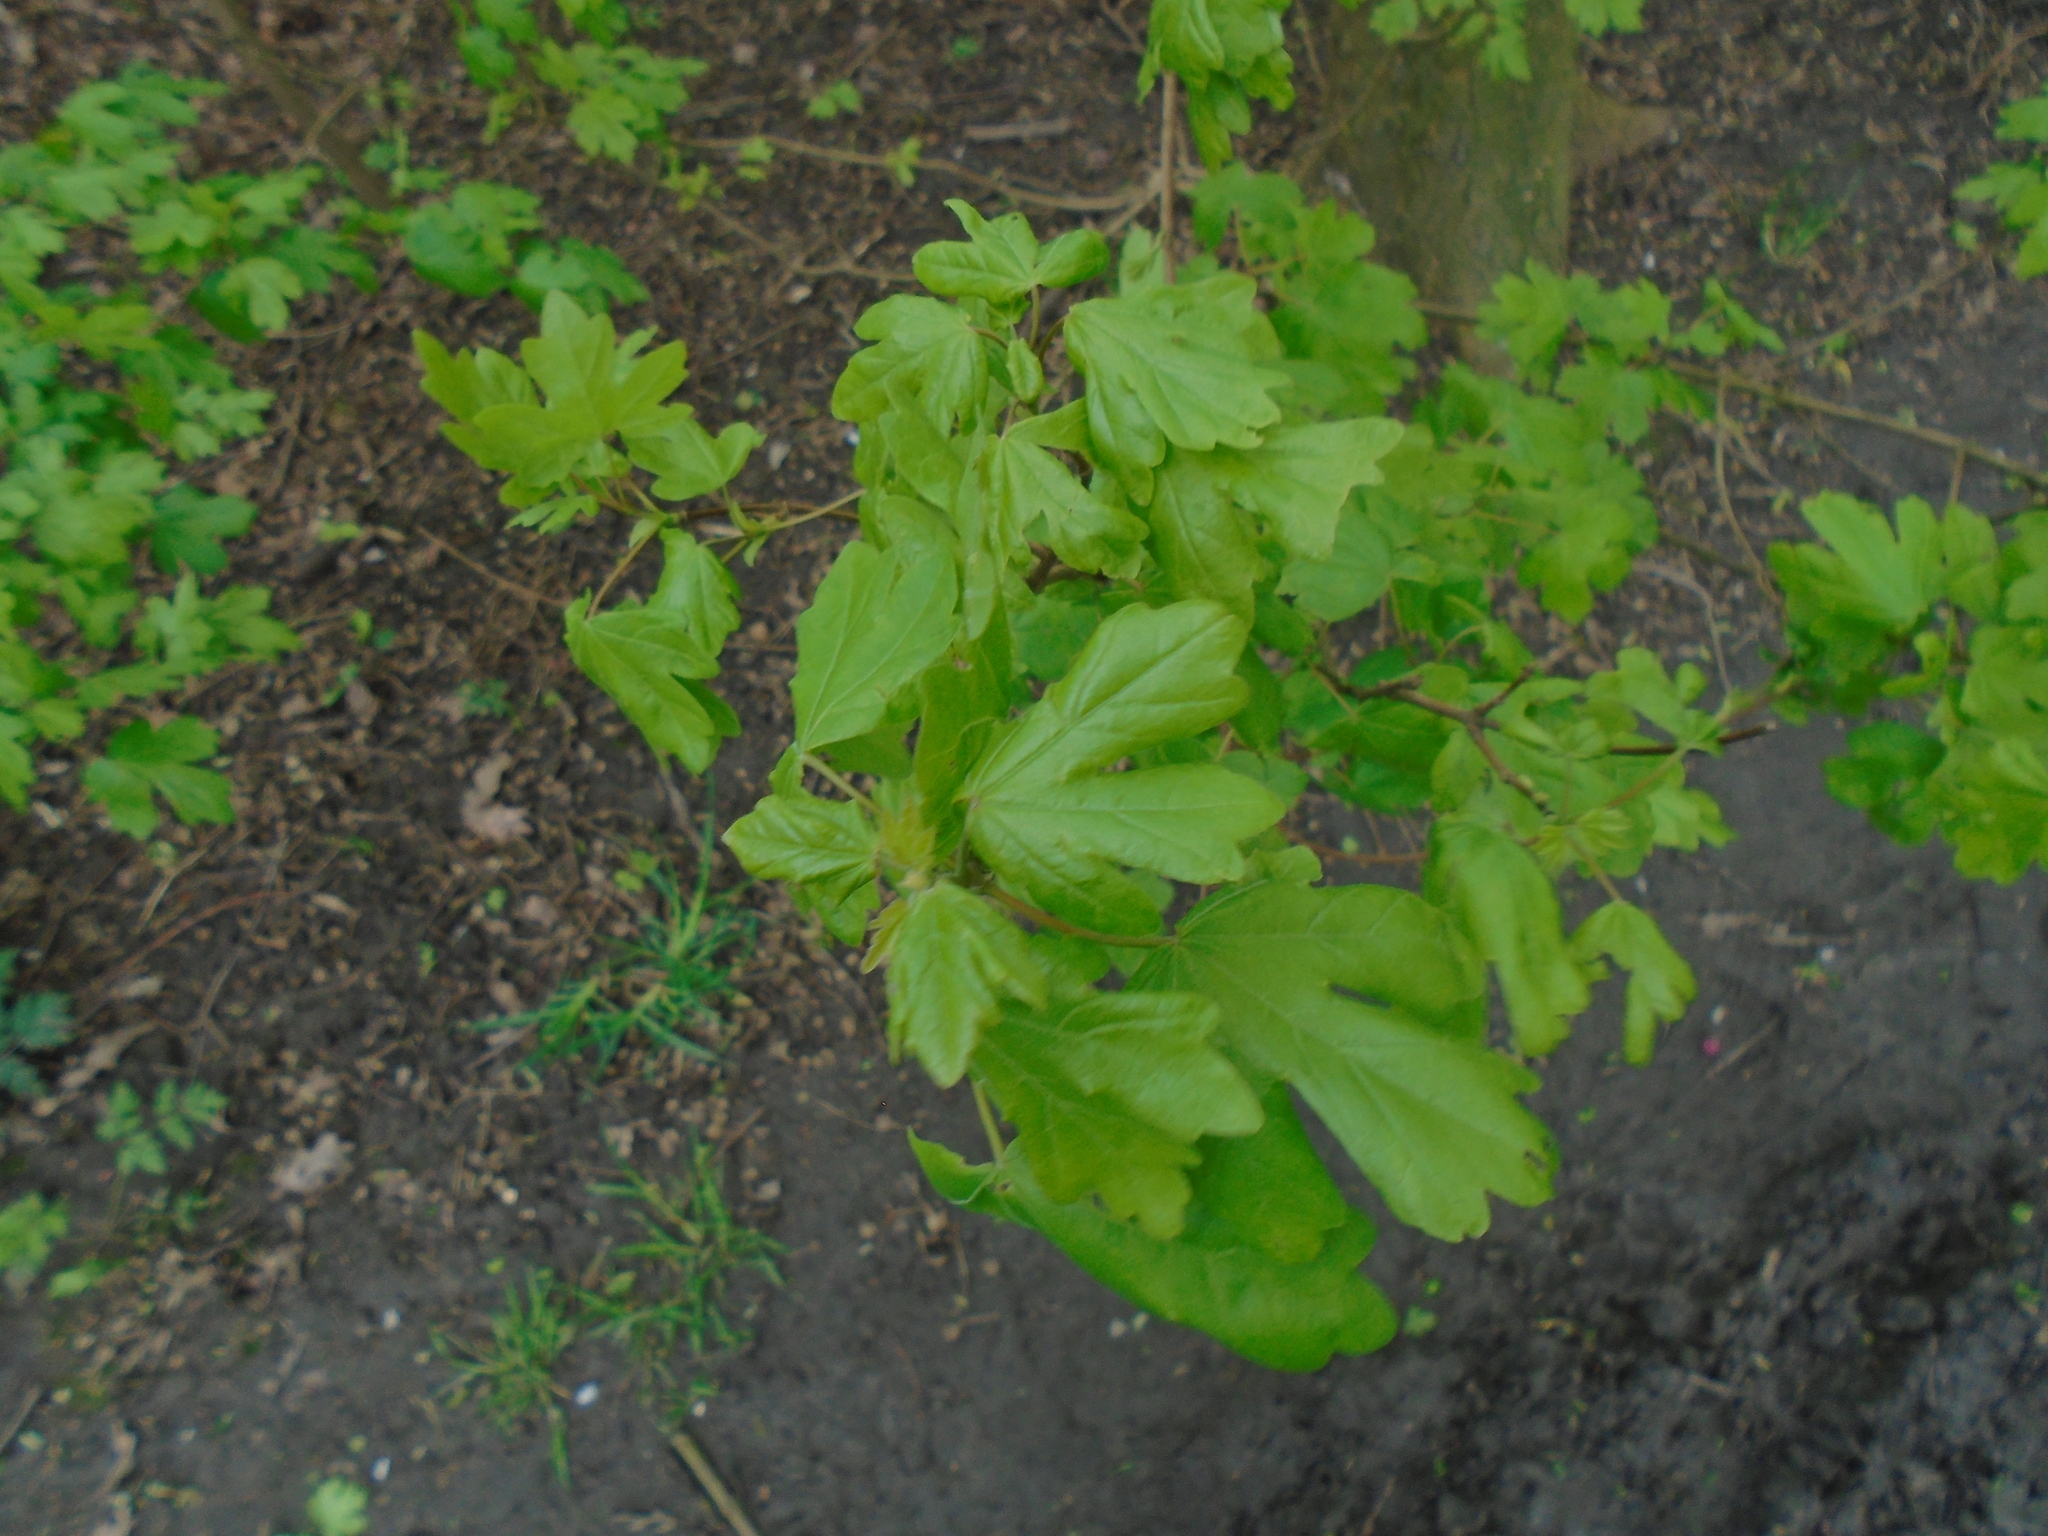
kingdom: Plantae
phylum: Tracheophyta
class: Magnoliopsida
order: Sapindales
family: Sapindaceae
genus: Acer
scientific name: Acer campestre
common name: Field maple
